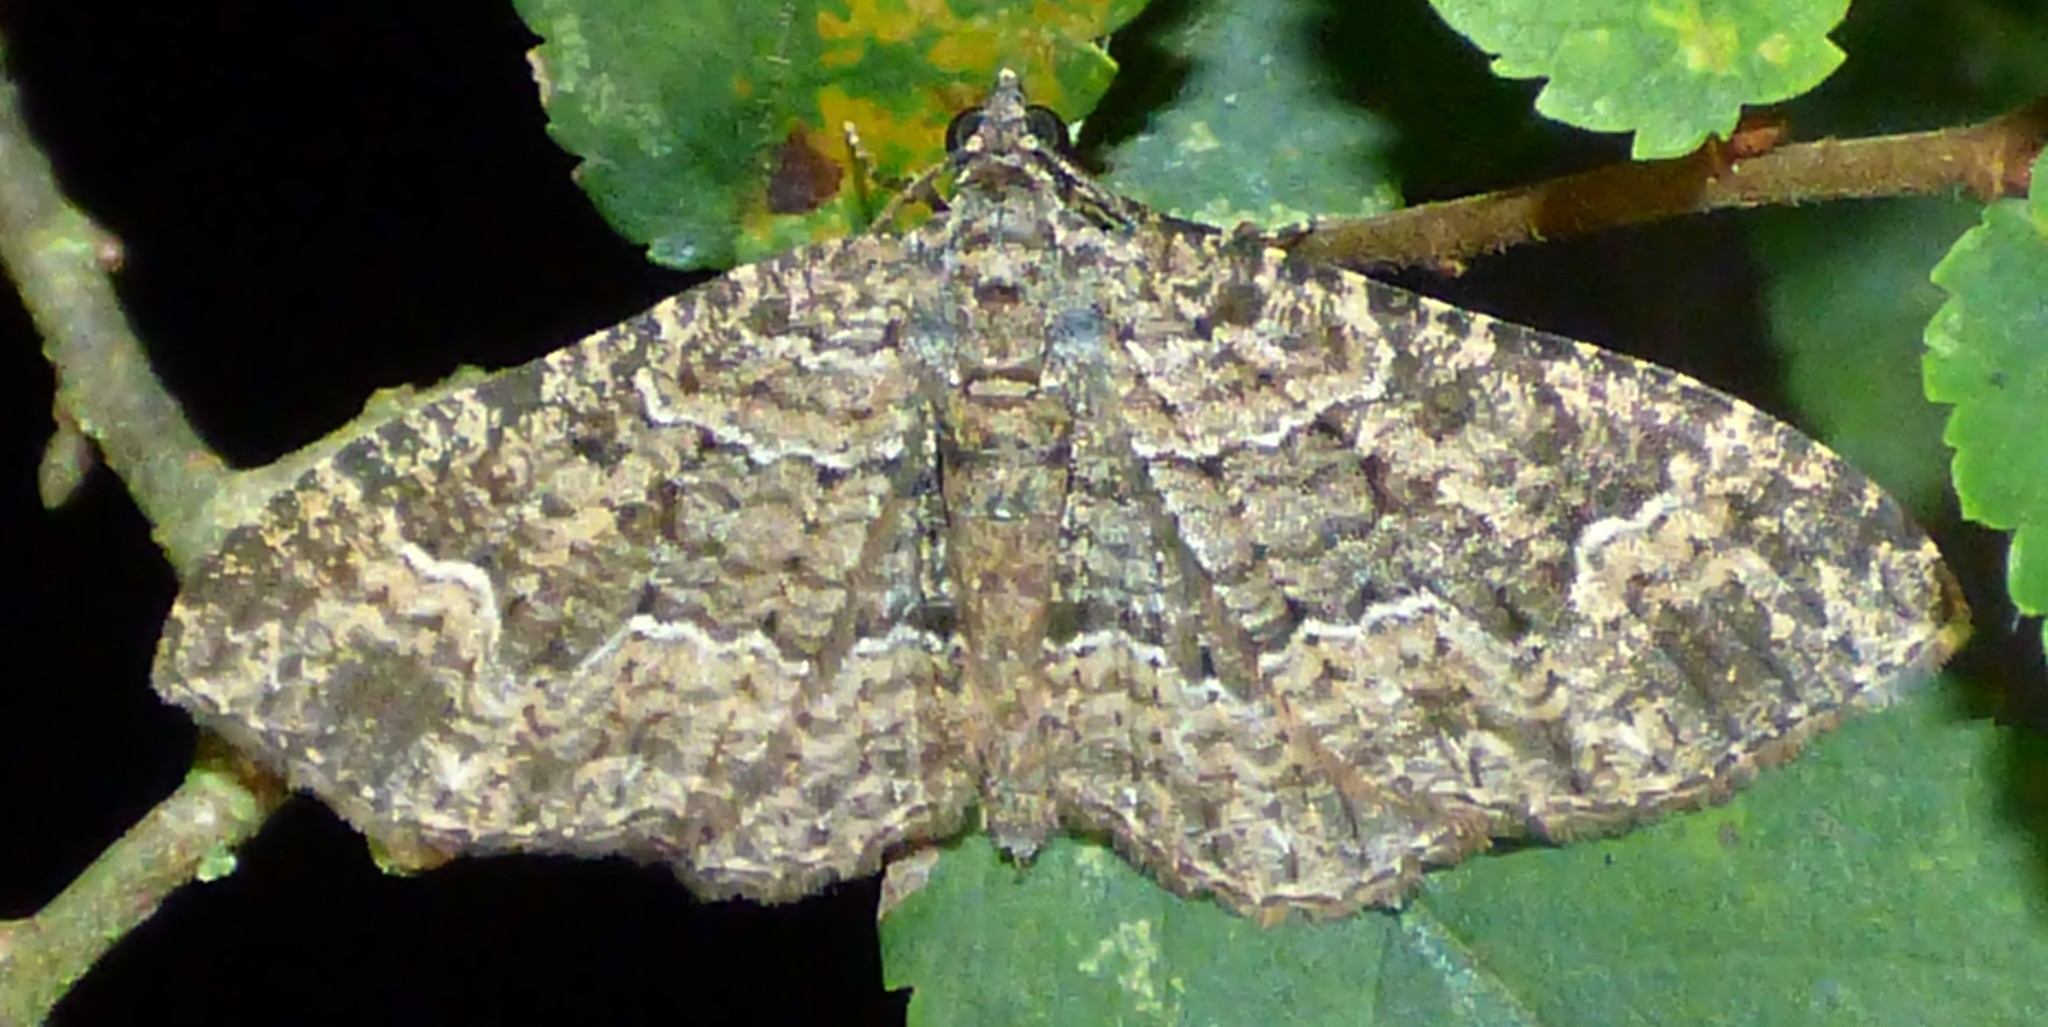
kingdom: Animalia
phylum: Arthropoda
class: Insecta
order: Lepidoptera
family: Geometridae
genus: Disclisioprocta
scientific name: Disclisioprocta stellata
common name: Somber carpet
